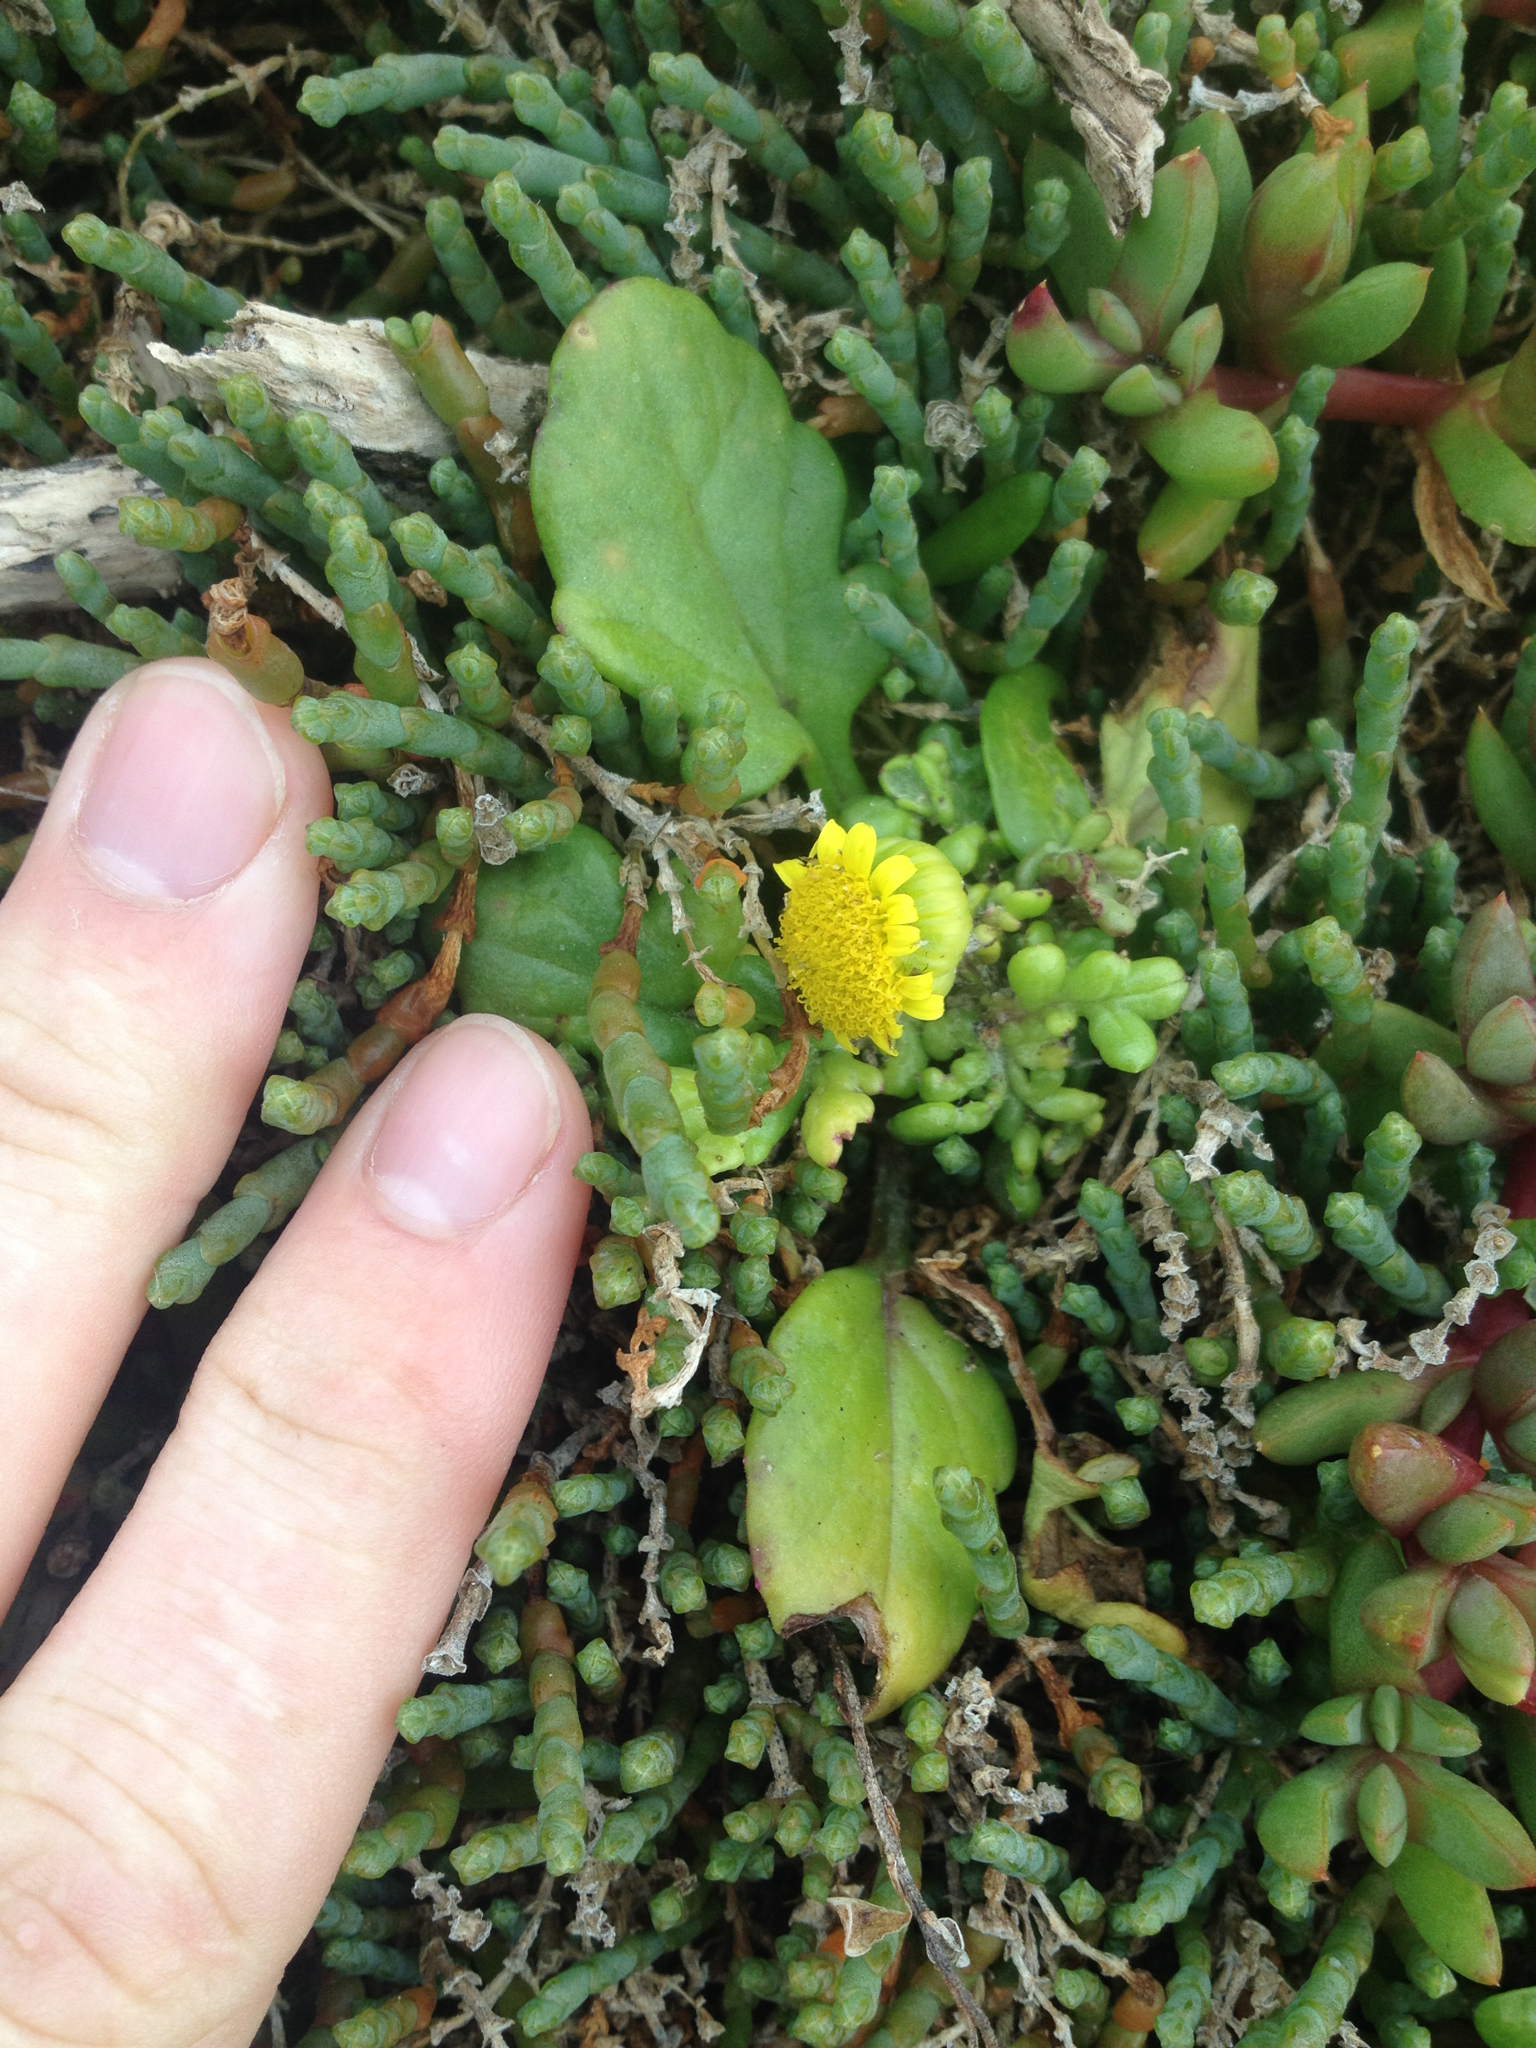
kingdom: Plantae
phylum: Tracheophyta
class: Magnoliopsida
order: Asterales
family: Asteraceae
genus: Senecio
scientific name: Senecio lautus
